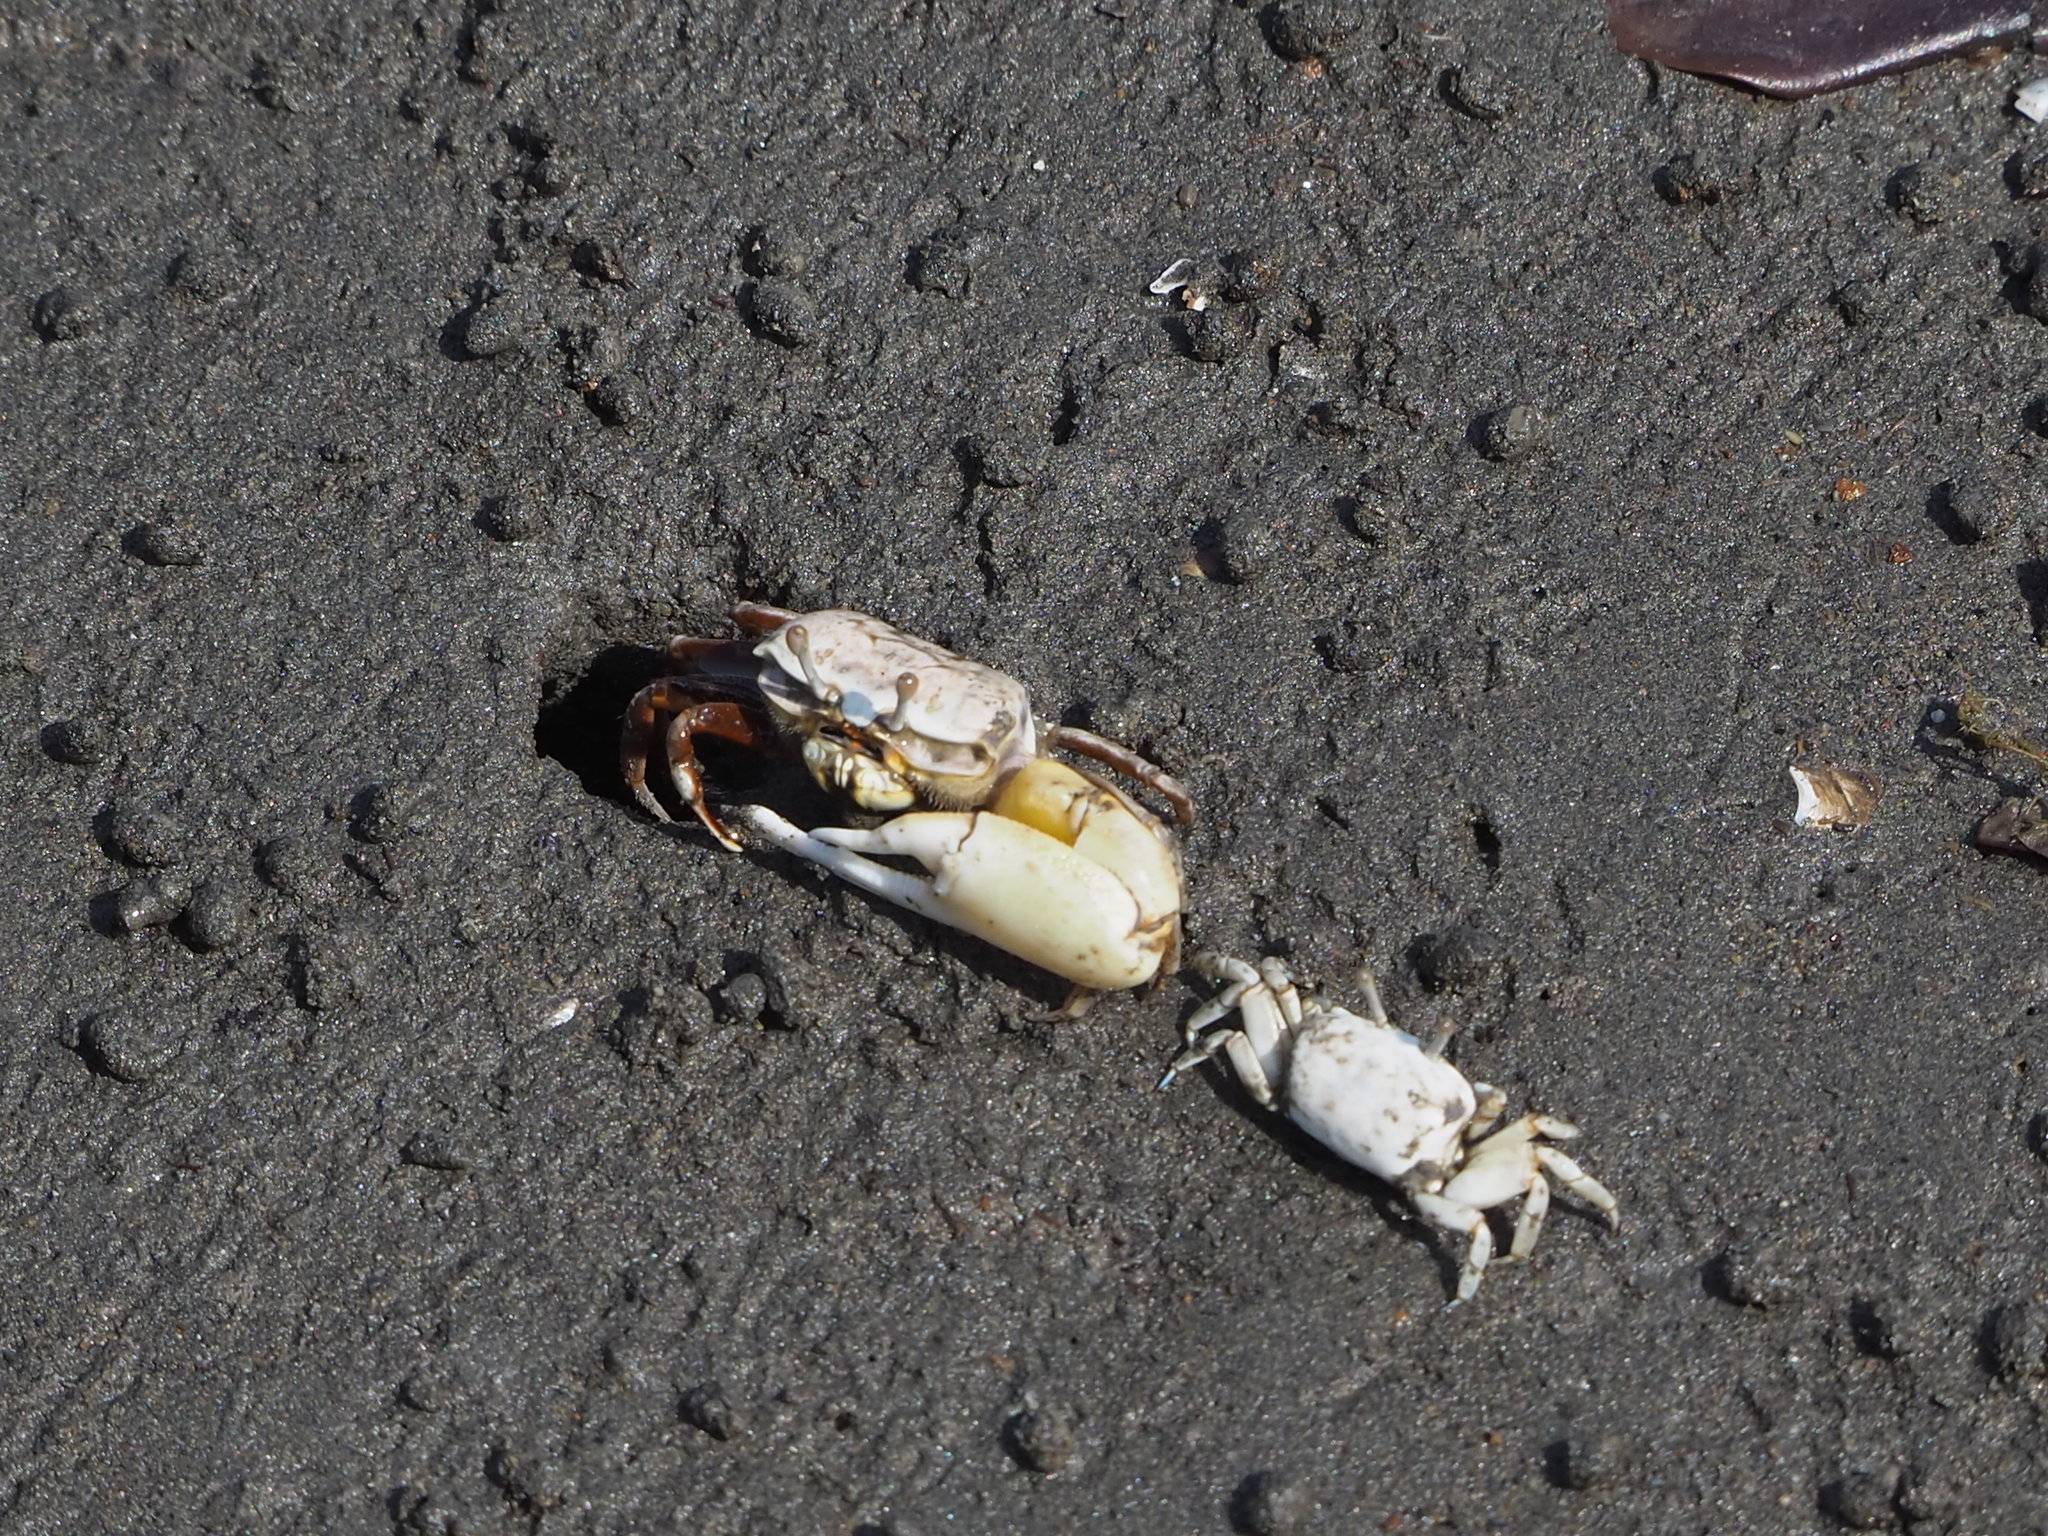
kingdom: Animalia
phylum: Arthropoda
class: Malacostraca
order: Decapoda
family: Ocypodidae
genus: Austruca
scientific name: Austruca lactea
